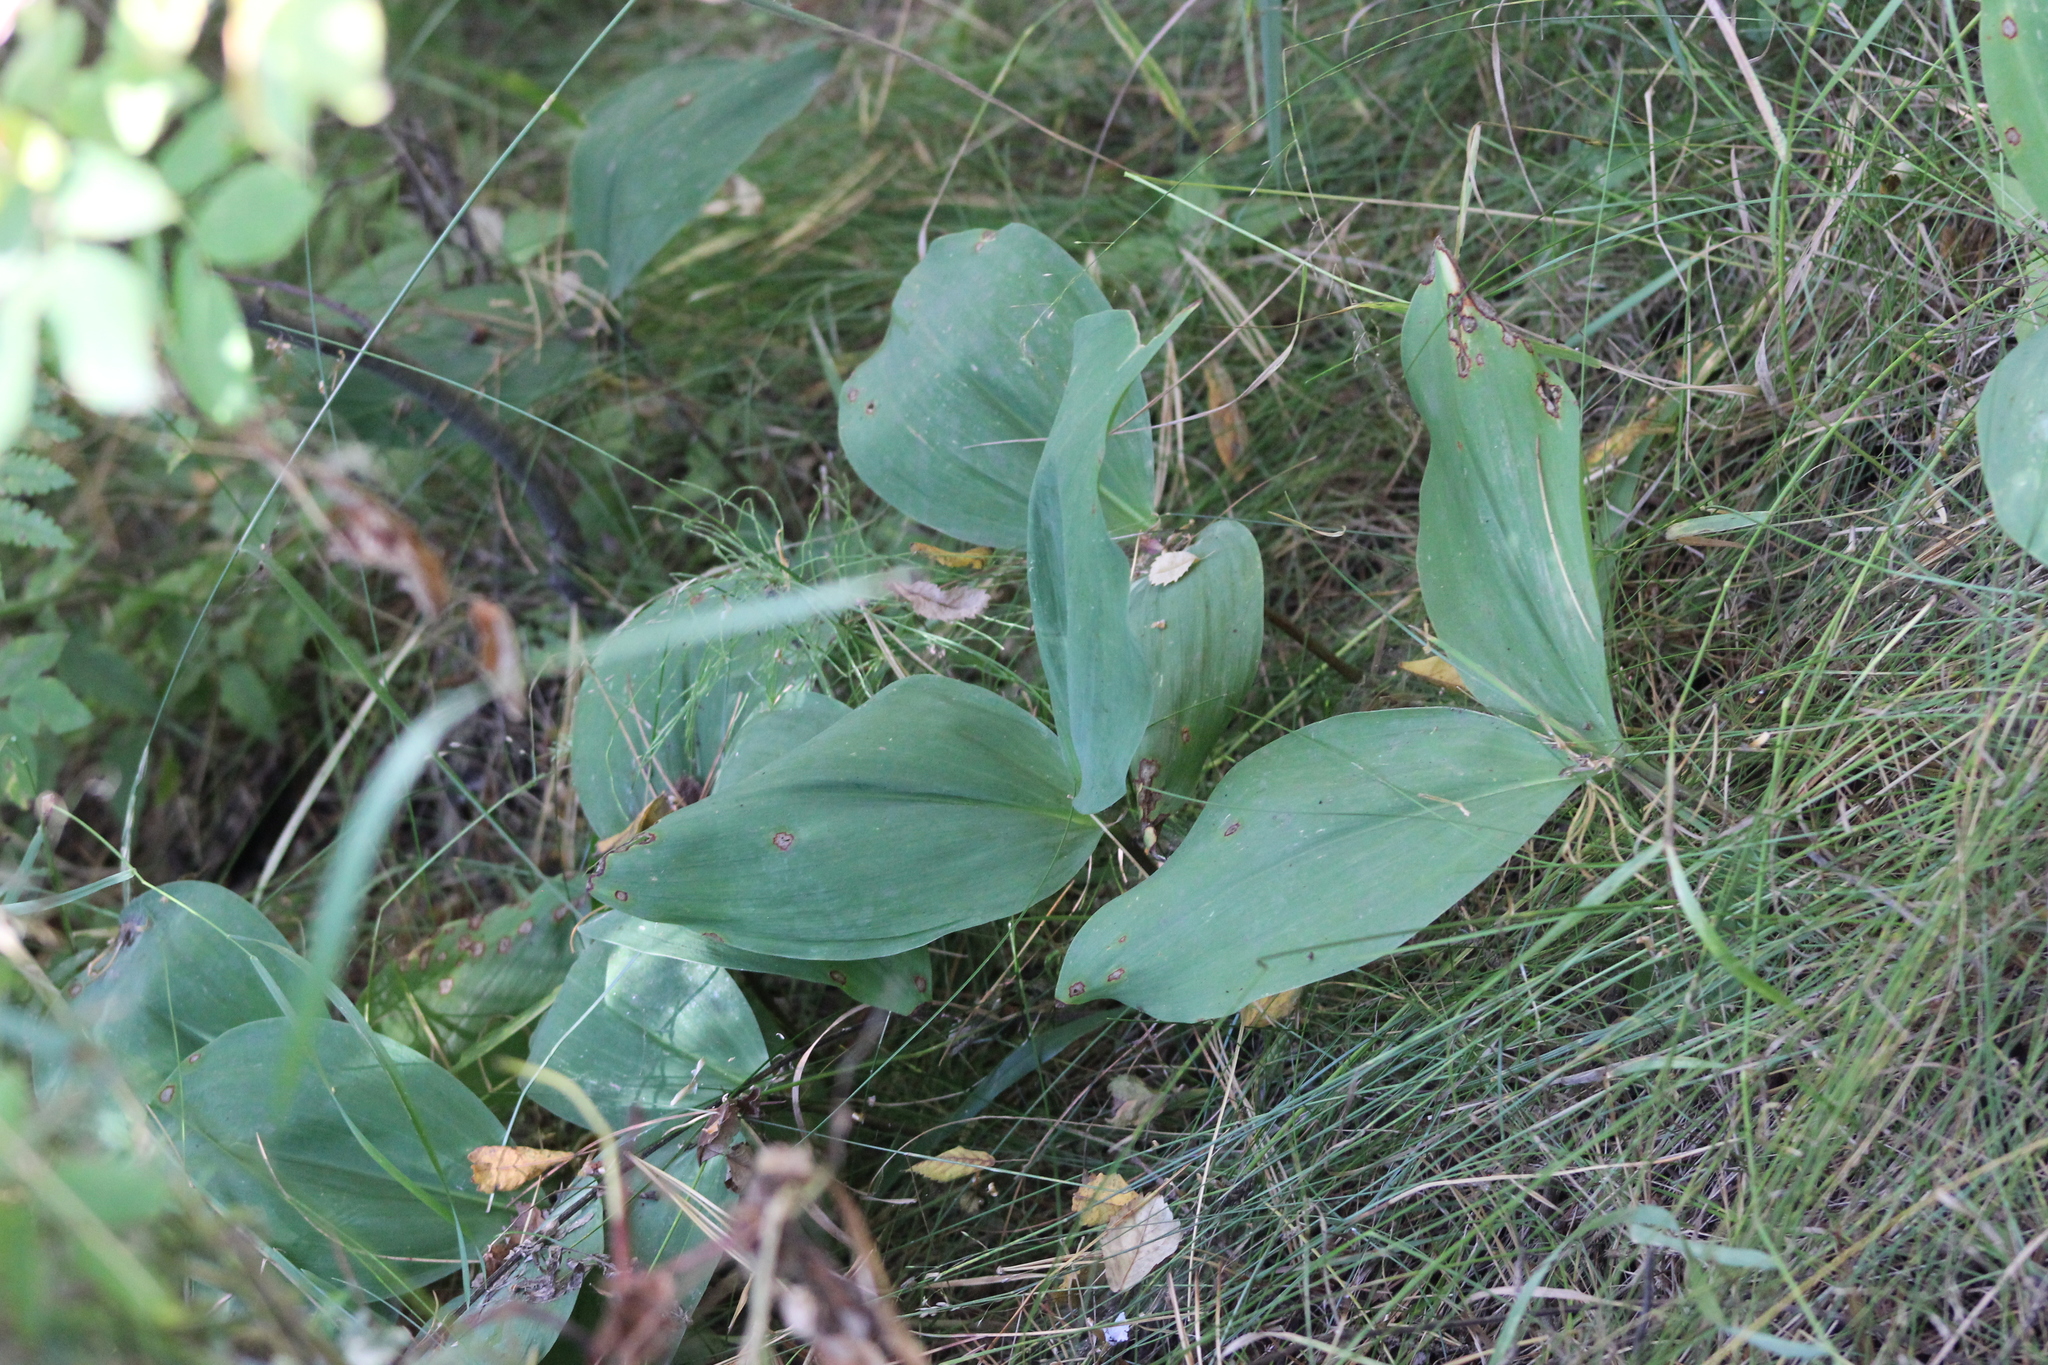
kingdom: Plantae
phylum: Tracheophyta
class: Liliopsida
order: Asparagales
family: Asparagaceae
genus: Convallaria
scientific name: Convallaria majalis
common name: Lily-of-the-valley
